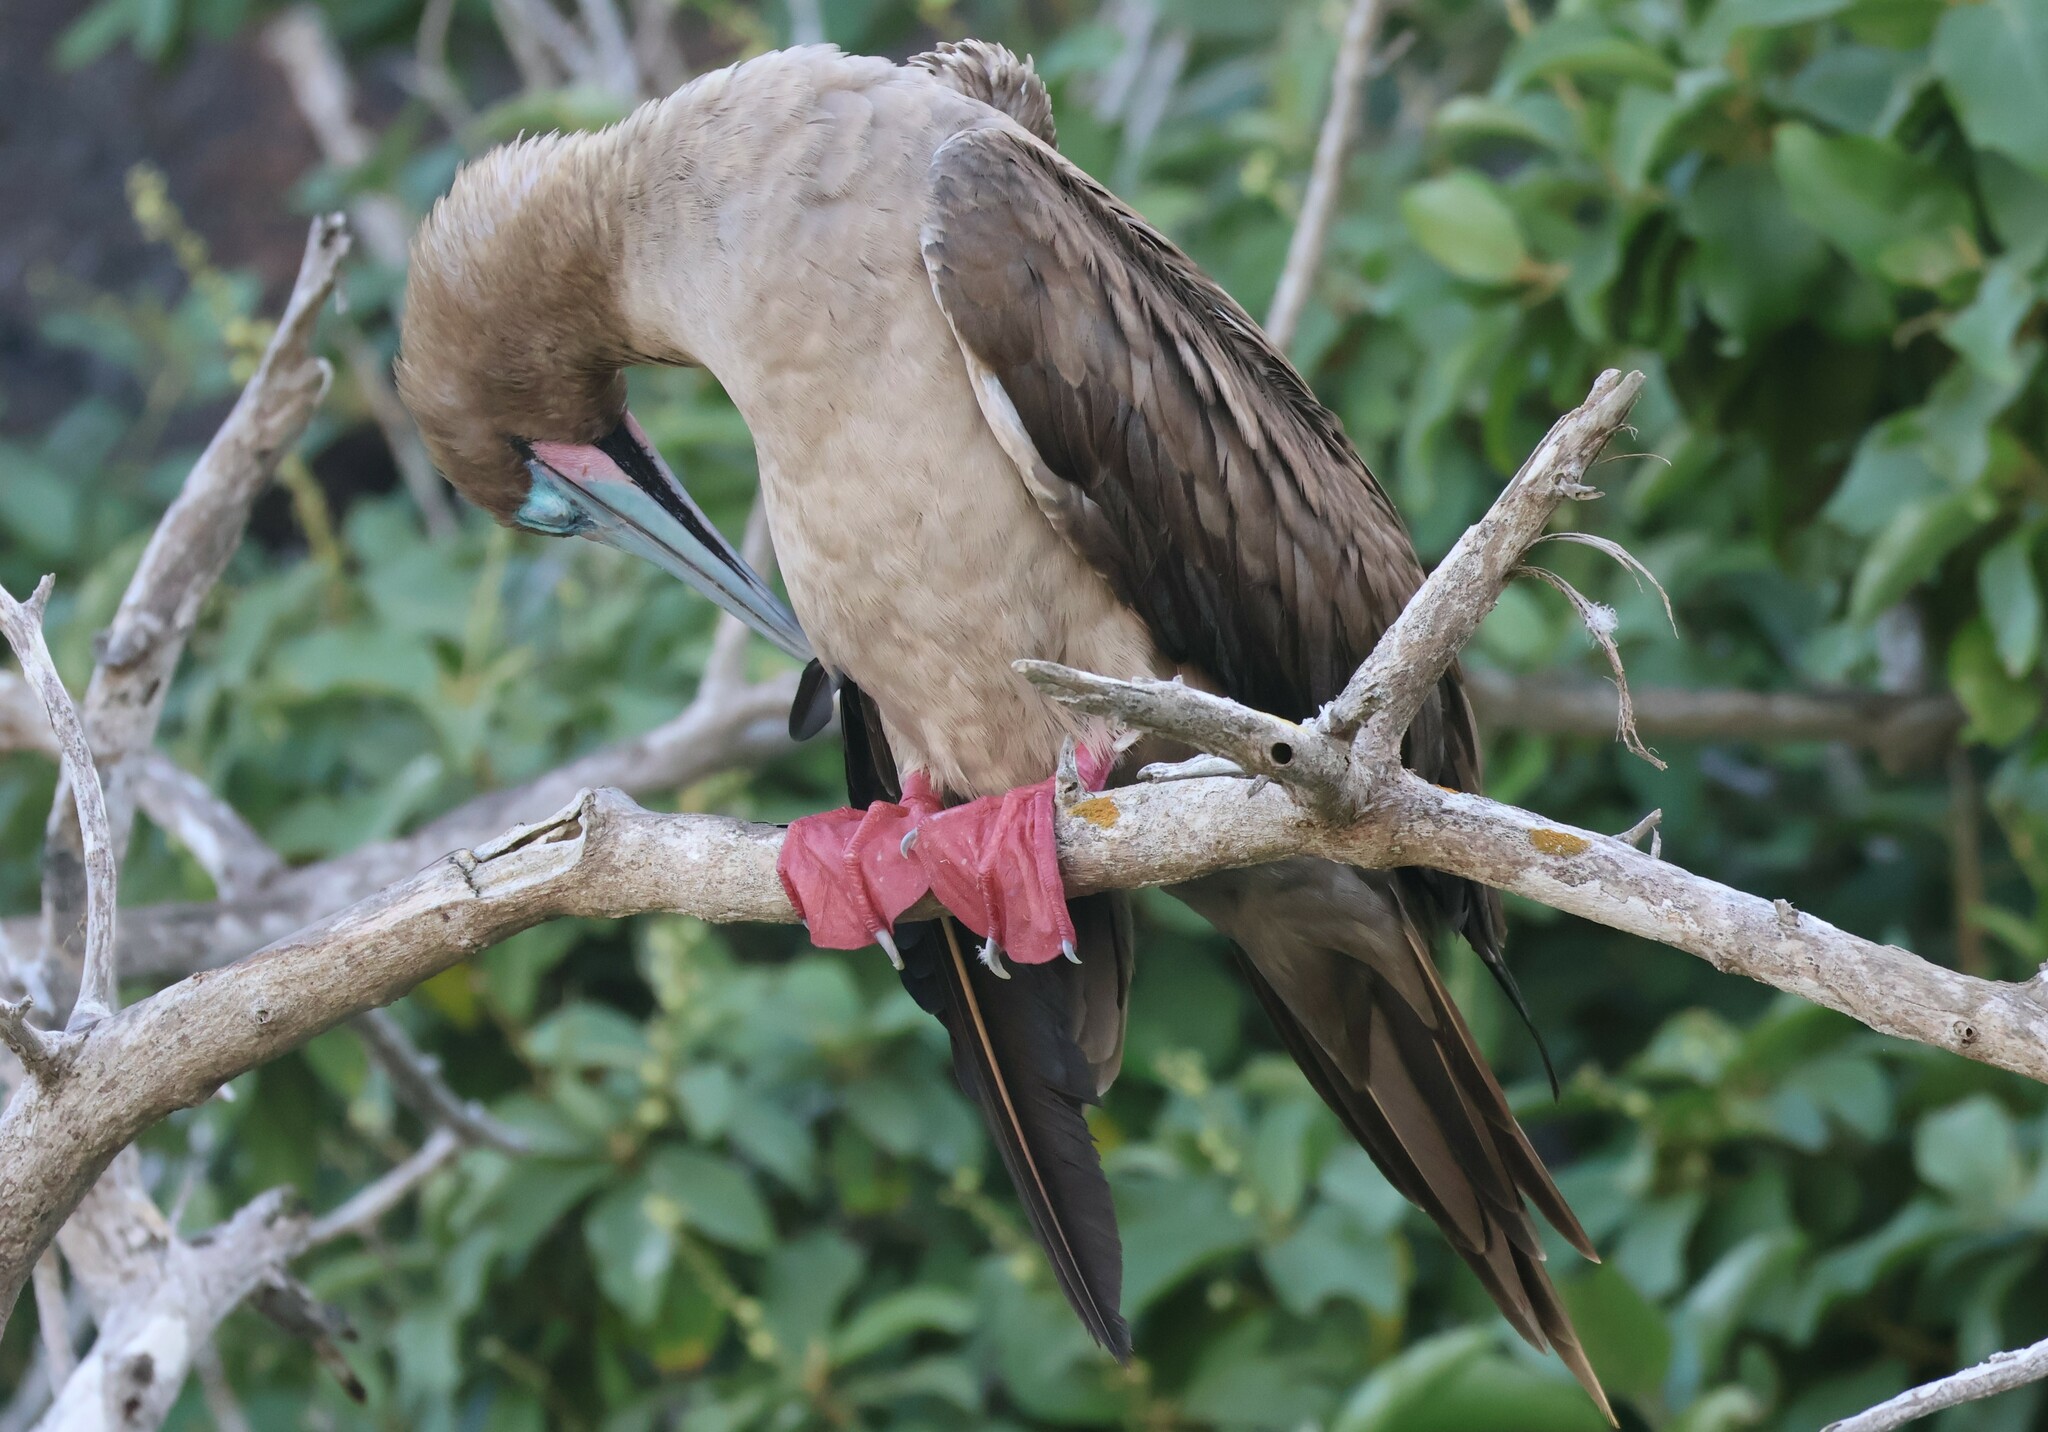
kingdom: Animalia
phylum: Chordata
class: Aves
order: Suliformes
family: Sulidae
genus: Sula
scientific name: Sula sula
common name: Red-footed booby
